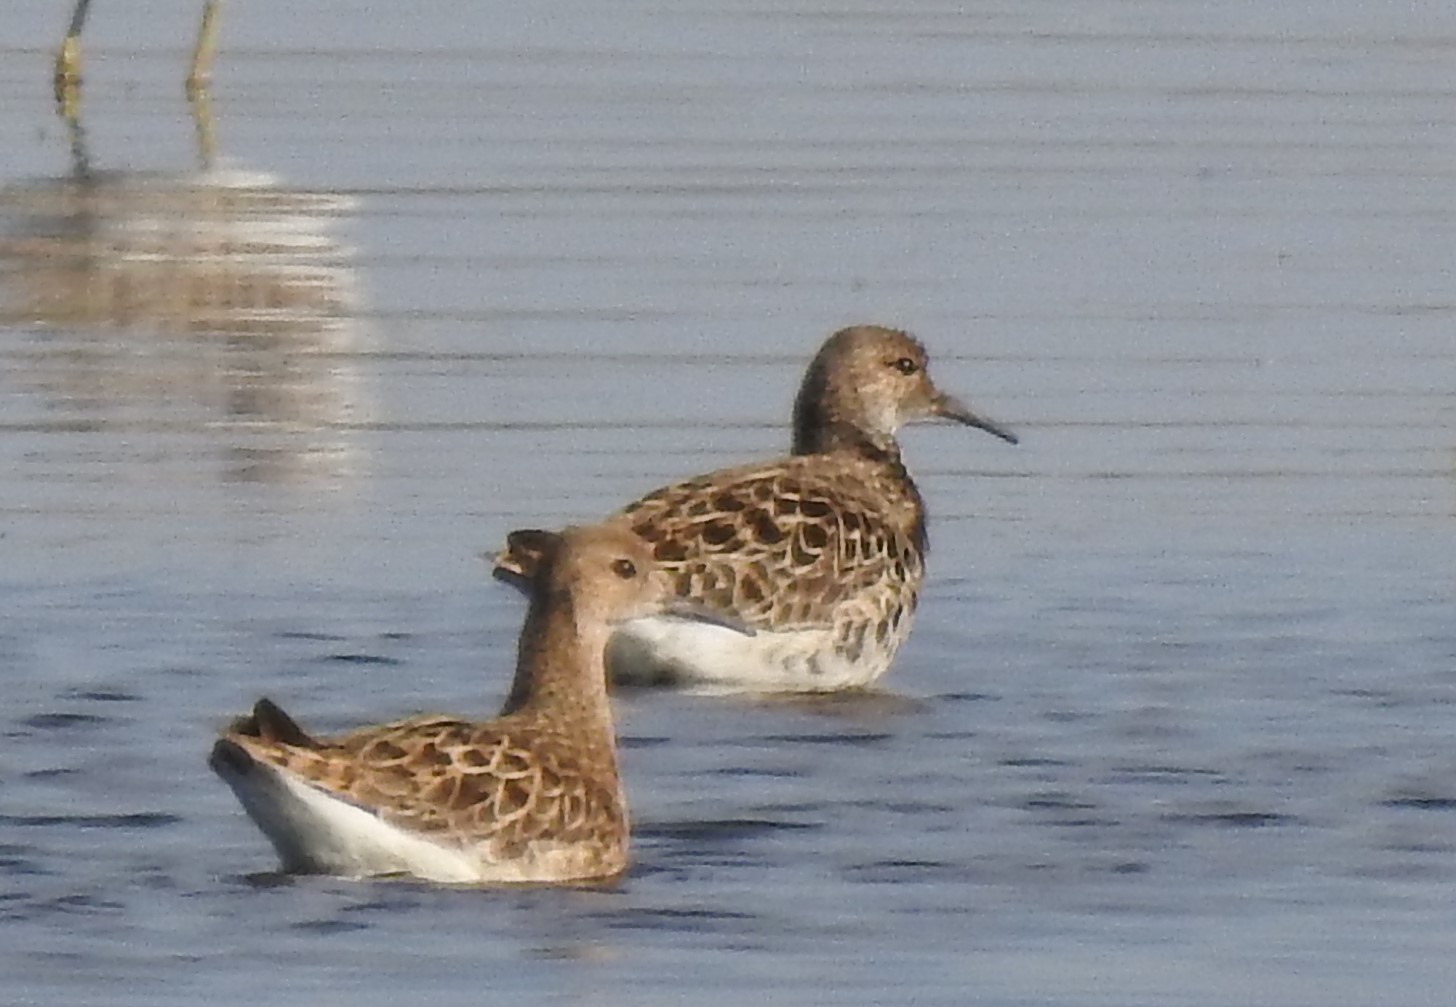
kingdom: Animalia
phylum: Chordata
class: Aves
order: Charadriiformes
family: Scolopacidae
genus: Calidris
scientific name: Calidris pugnax
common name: Ruff
